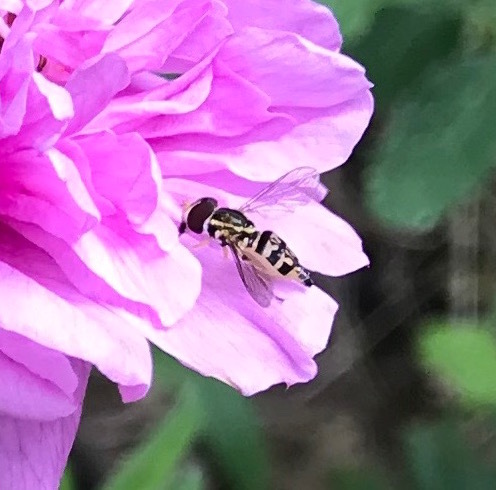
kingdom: Animalia
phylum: Arthropoda
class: Insecta
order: Diptera
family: Syrphidae
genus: Toxomerus
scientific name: Toxomerus geminatus
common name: Eastern calligrapher
